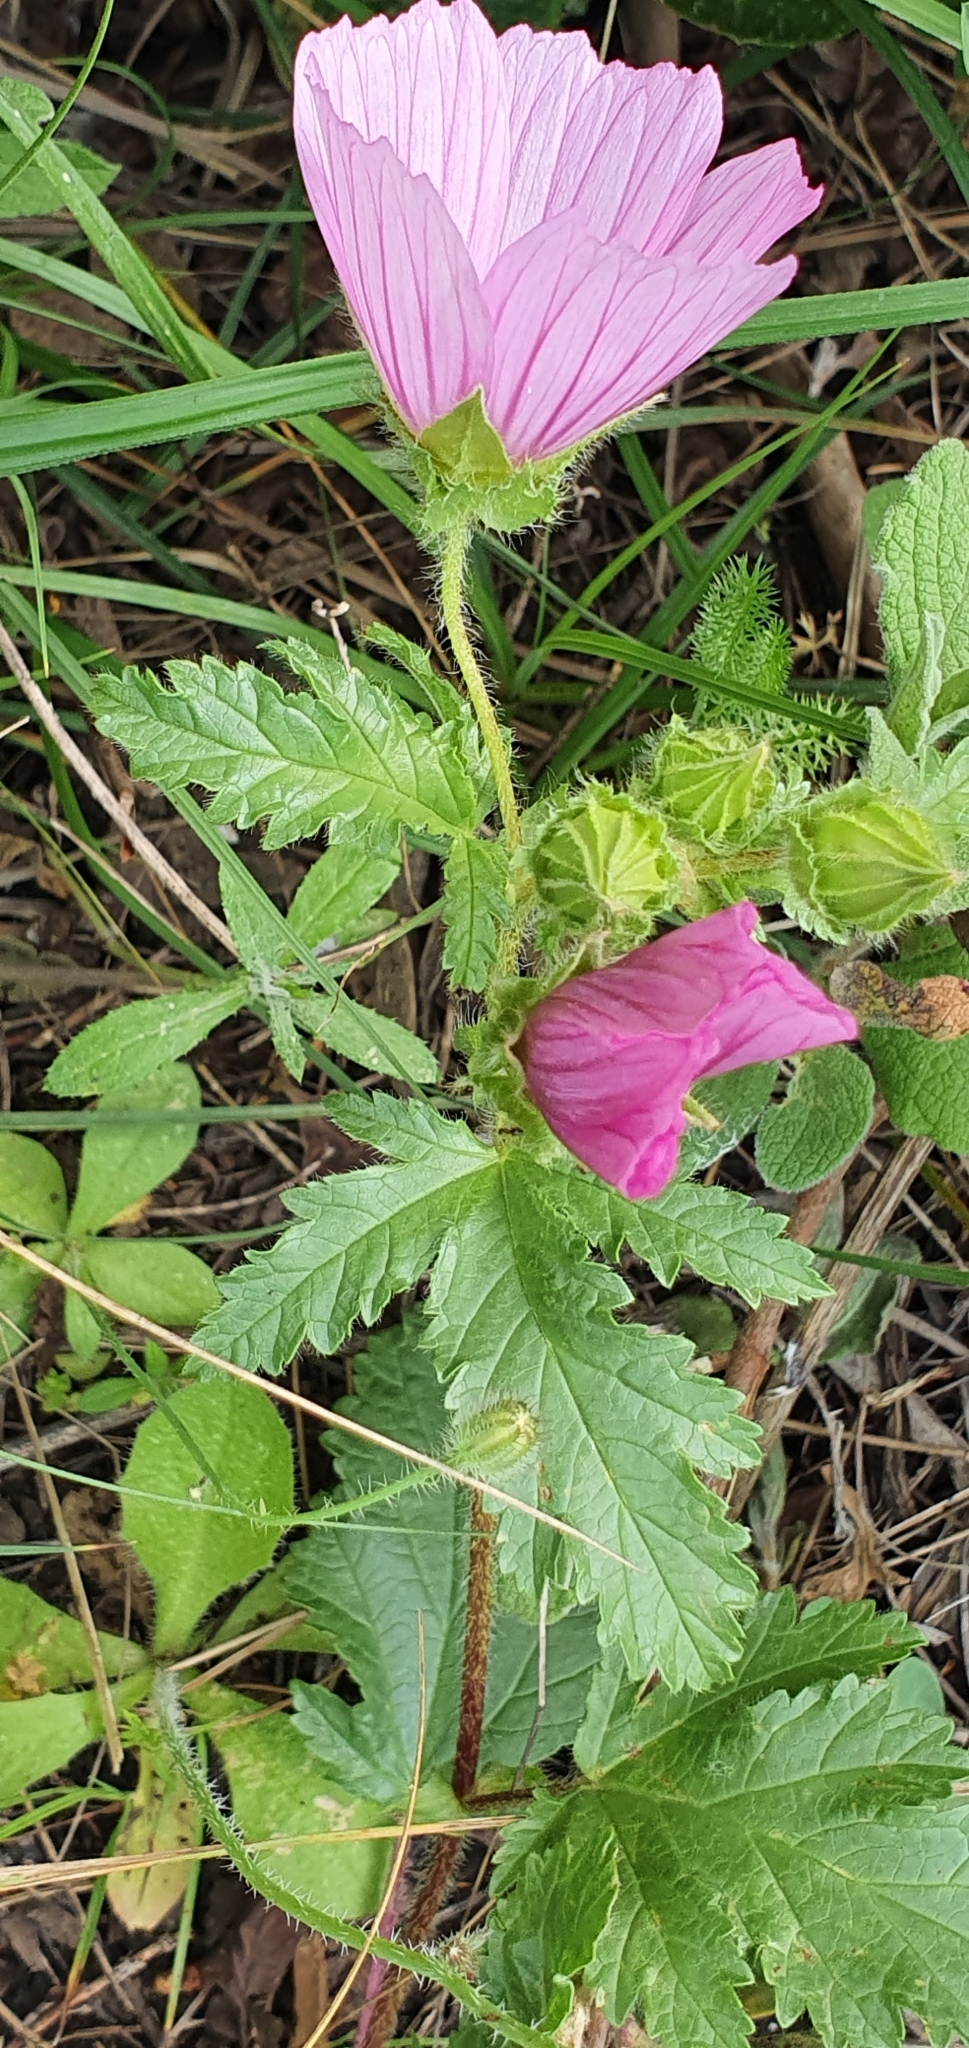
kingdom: Plantae
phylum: Tracheophyta
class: Magnoliopsida
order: Malvales
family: Malvaceae
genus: Malope
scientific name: Malope malacoides
